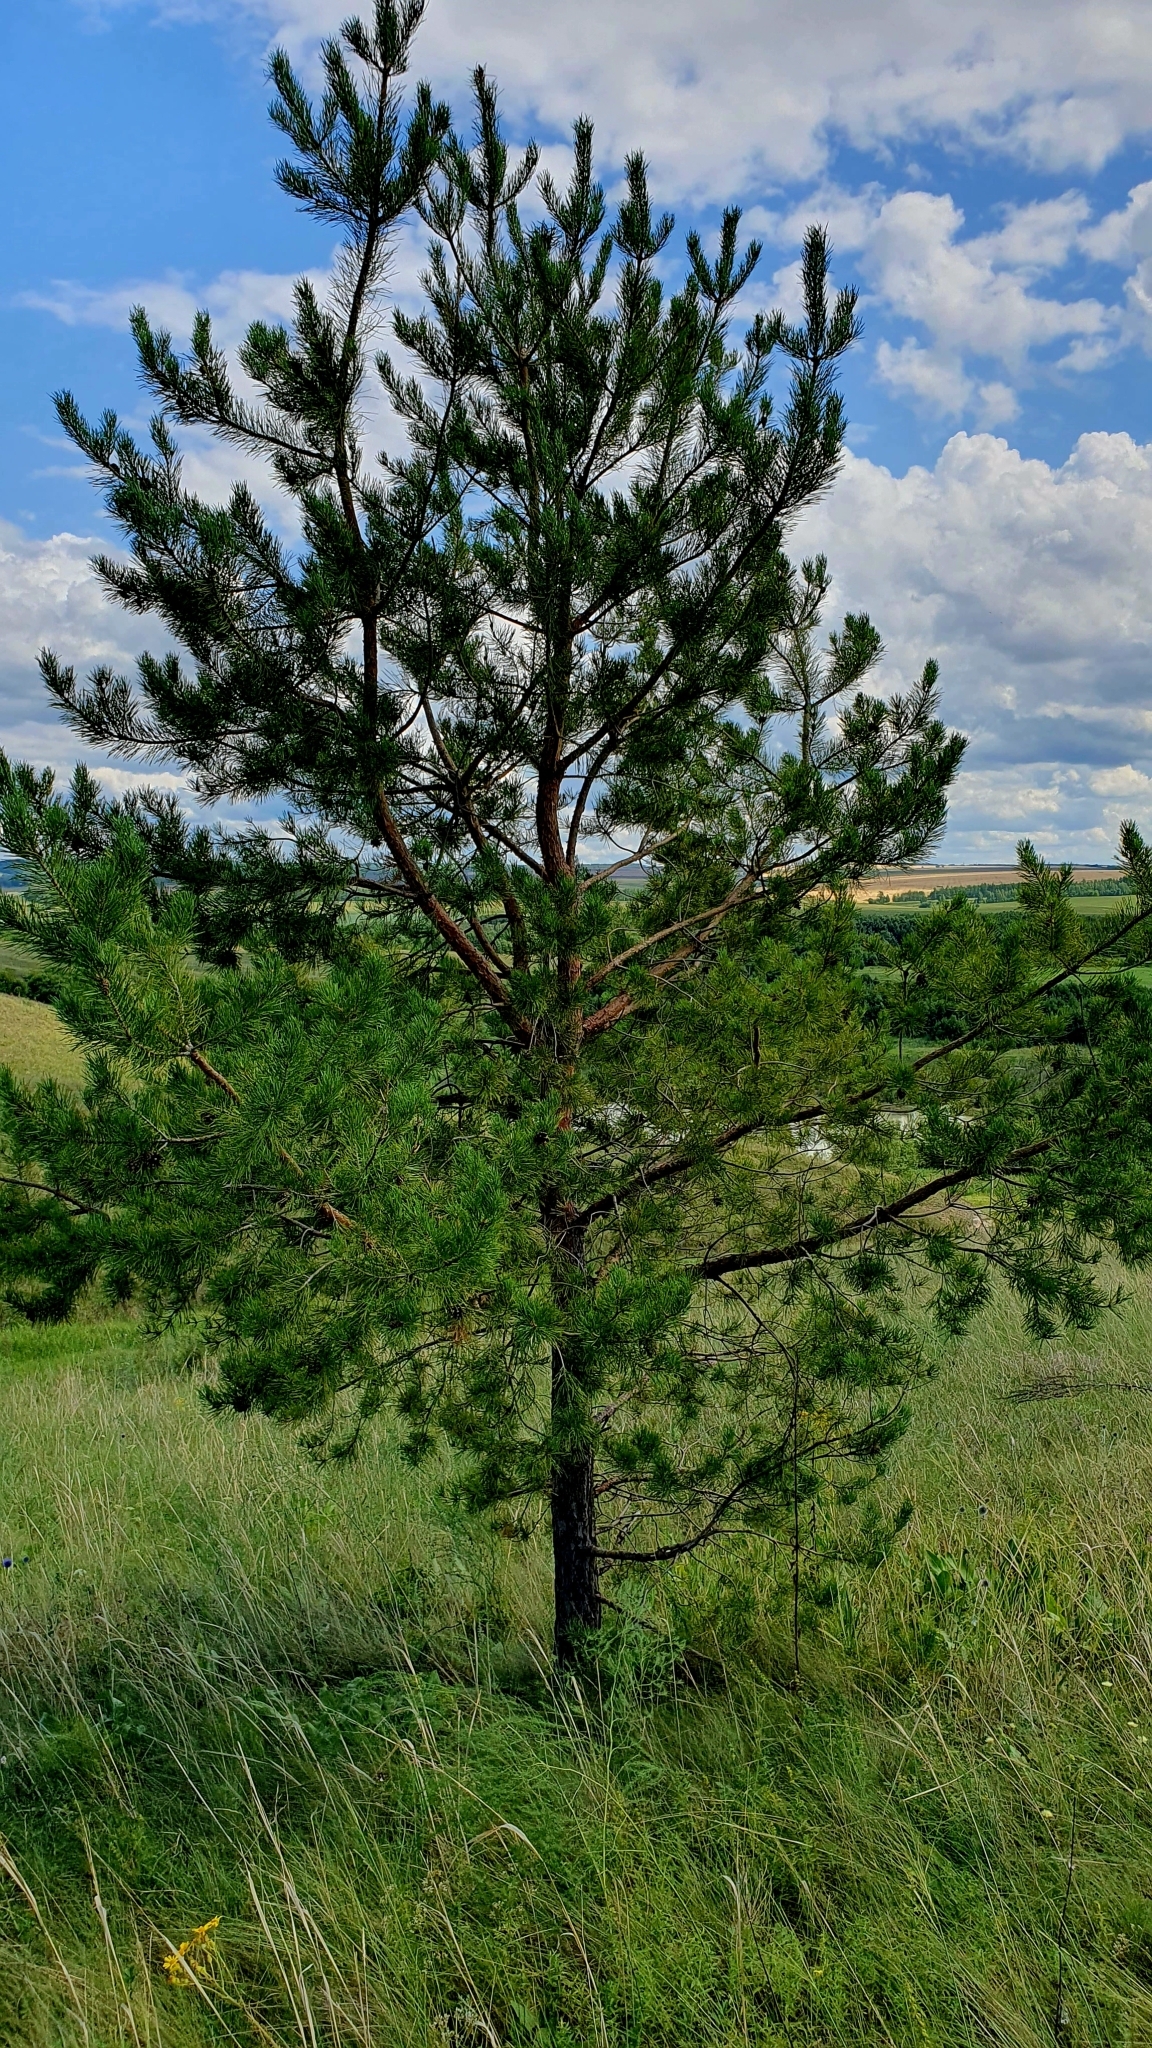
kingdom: Plantae
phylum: Tracheophyta
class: Pinopsida
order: Pinales
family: Pinaceae
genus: Pinus
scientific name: Pinus sylvestris
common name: Scots pine
